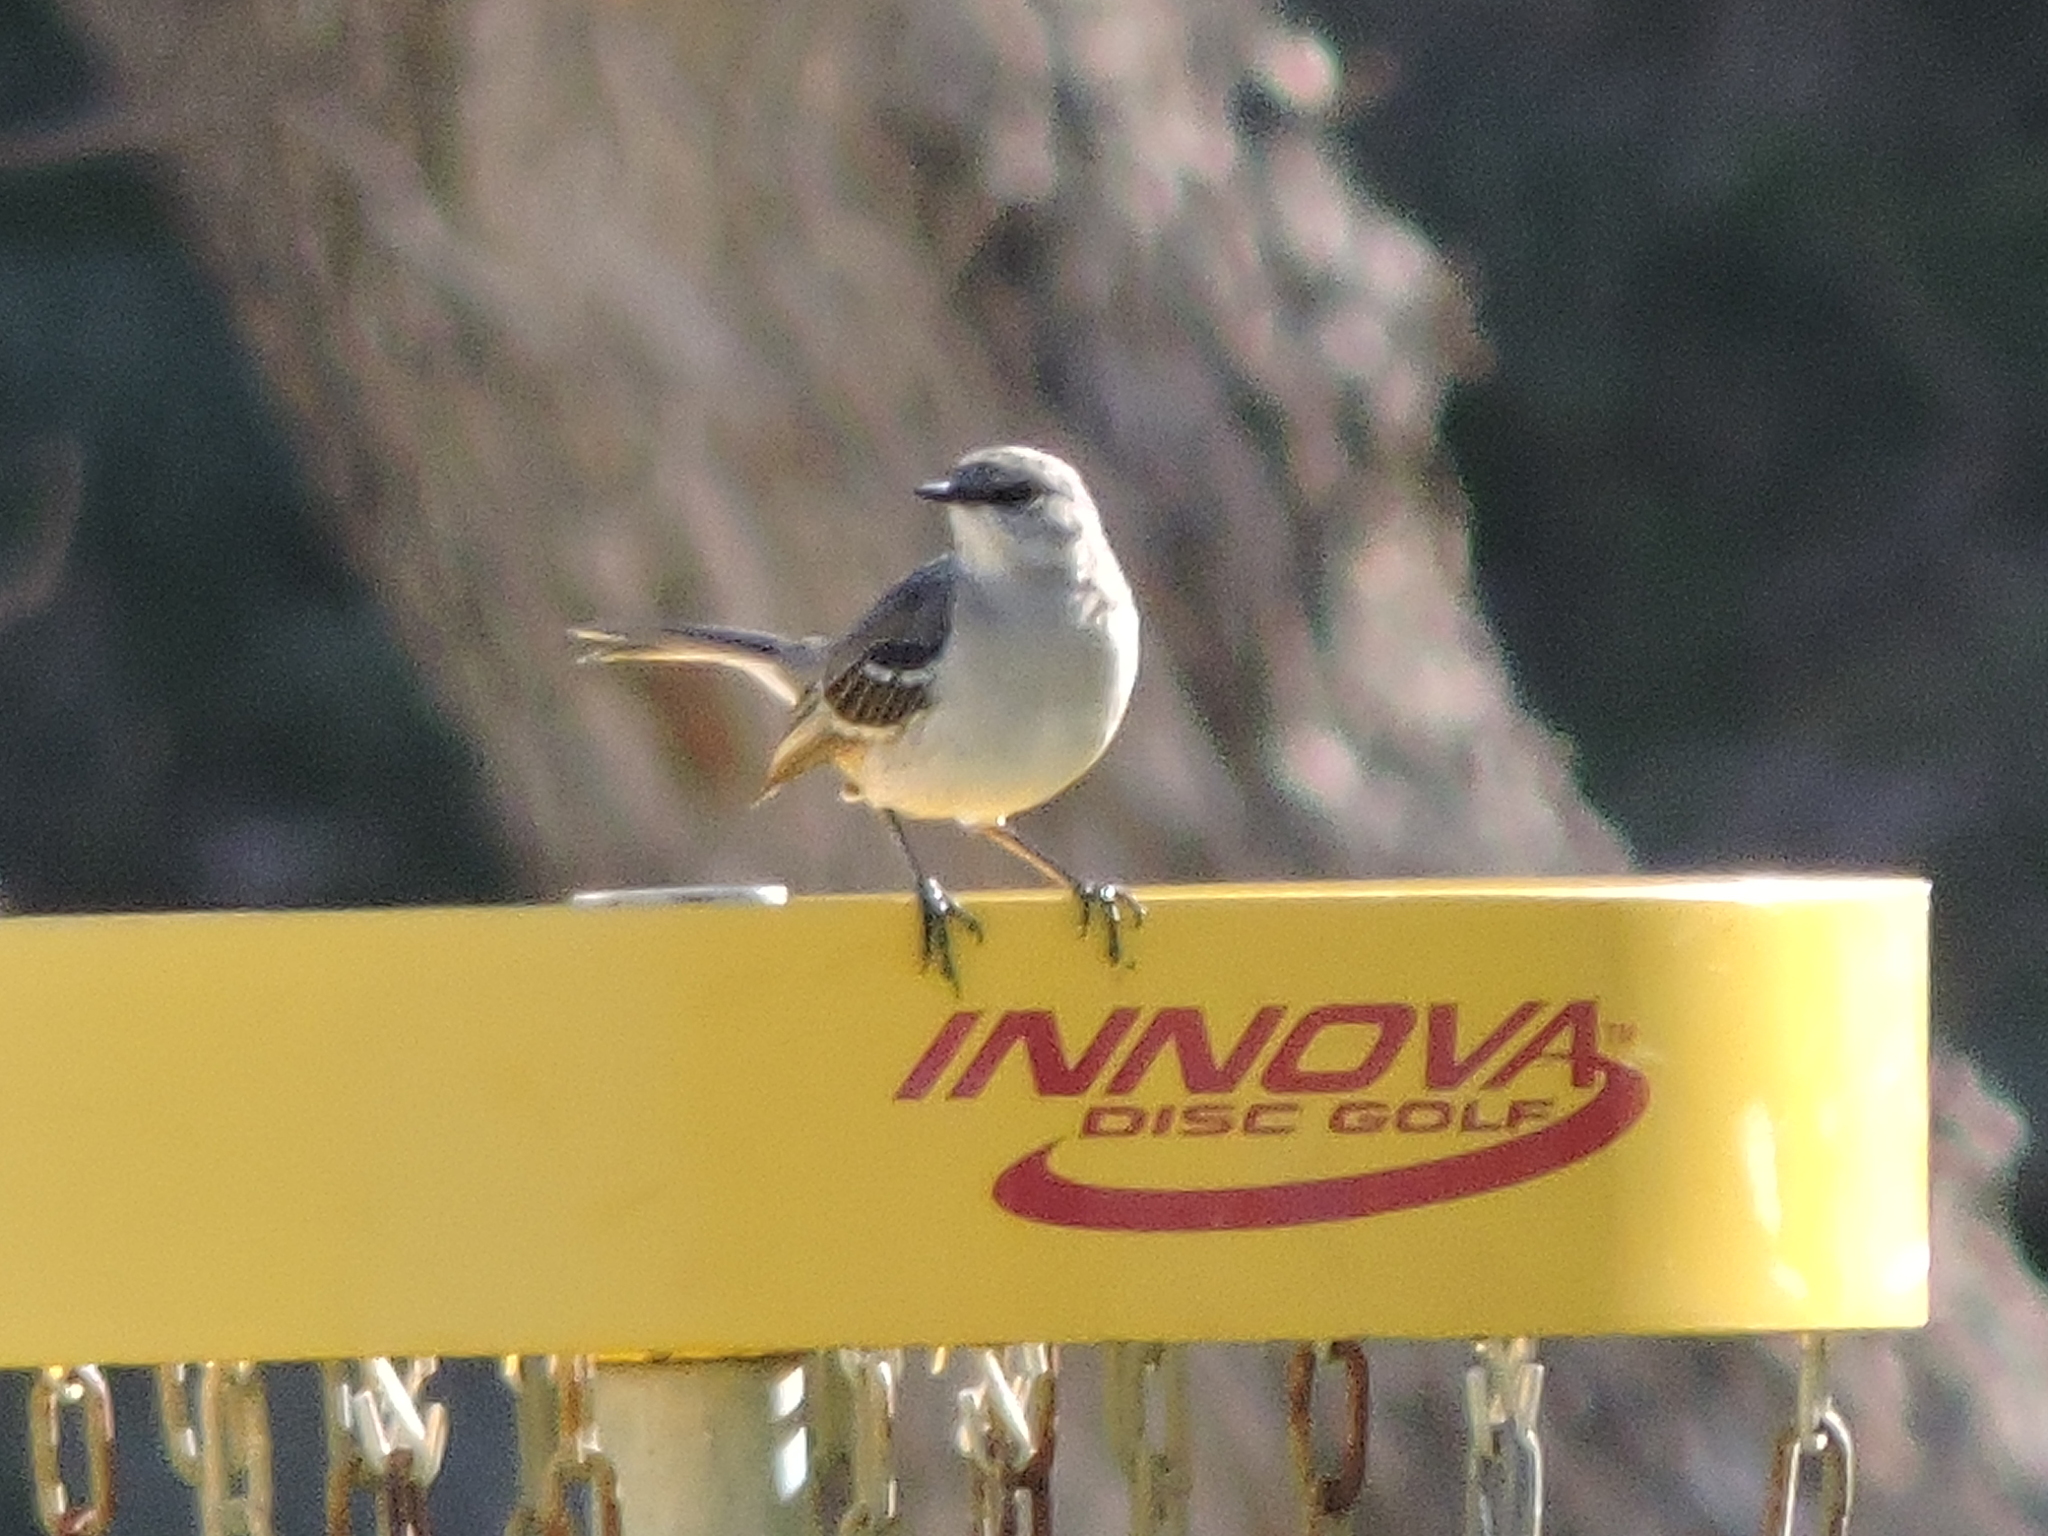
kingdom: Animalia
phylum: Chordata
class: Aves
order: Passeriformes
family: Mimidae
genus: Mimus
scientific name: Mimus polyglottos
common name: Northern mockingbird
